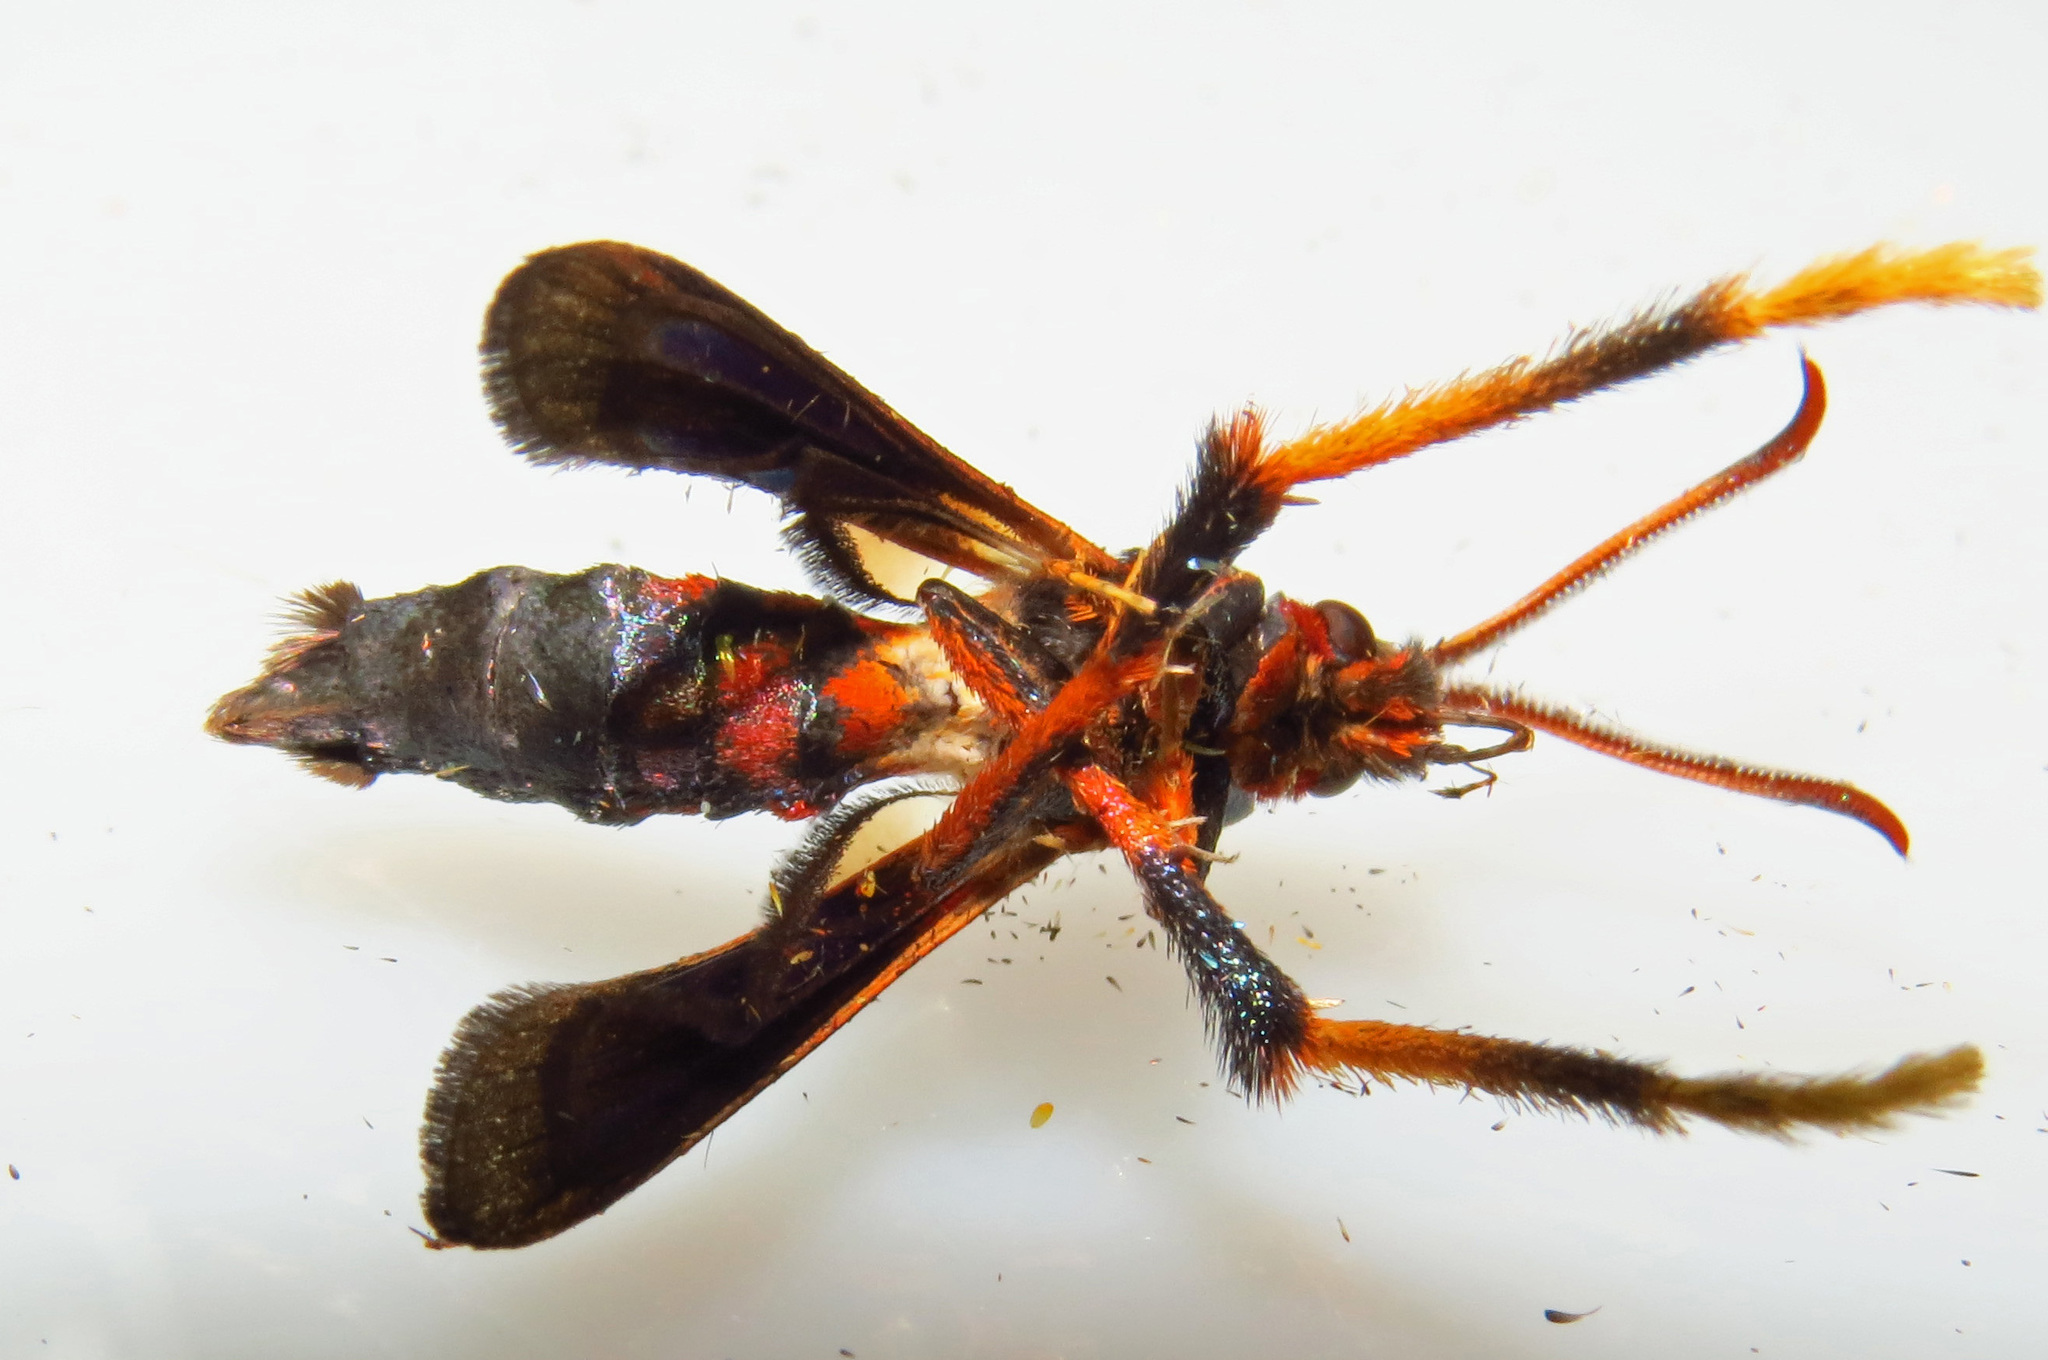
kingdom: Animalia
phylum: Arthropoda
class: Insecta
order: Lepidoptera
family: Sesiidae
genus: Podosesia
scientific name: Podosesia syringae
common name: Lilac borer moth
